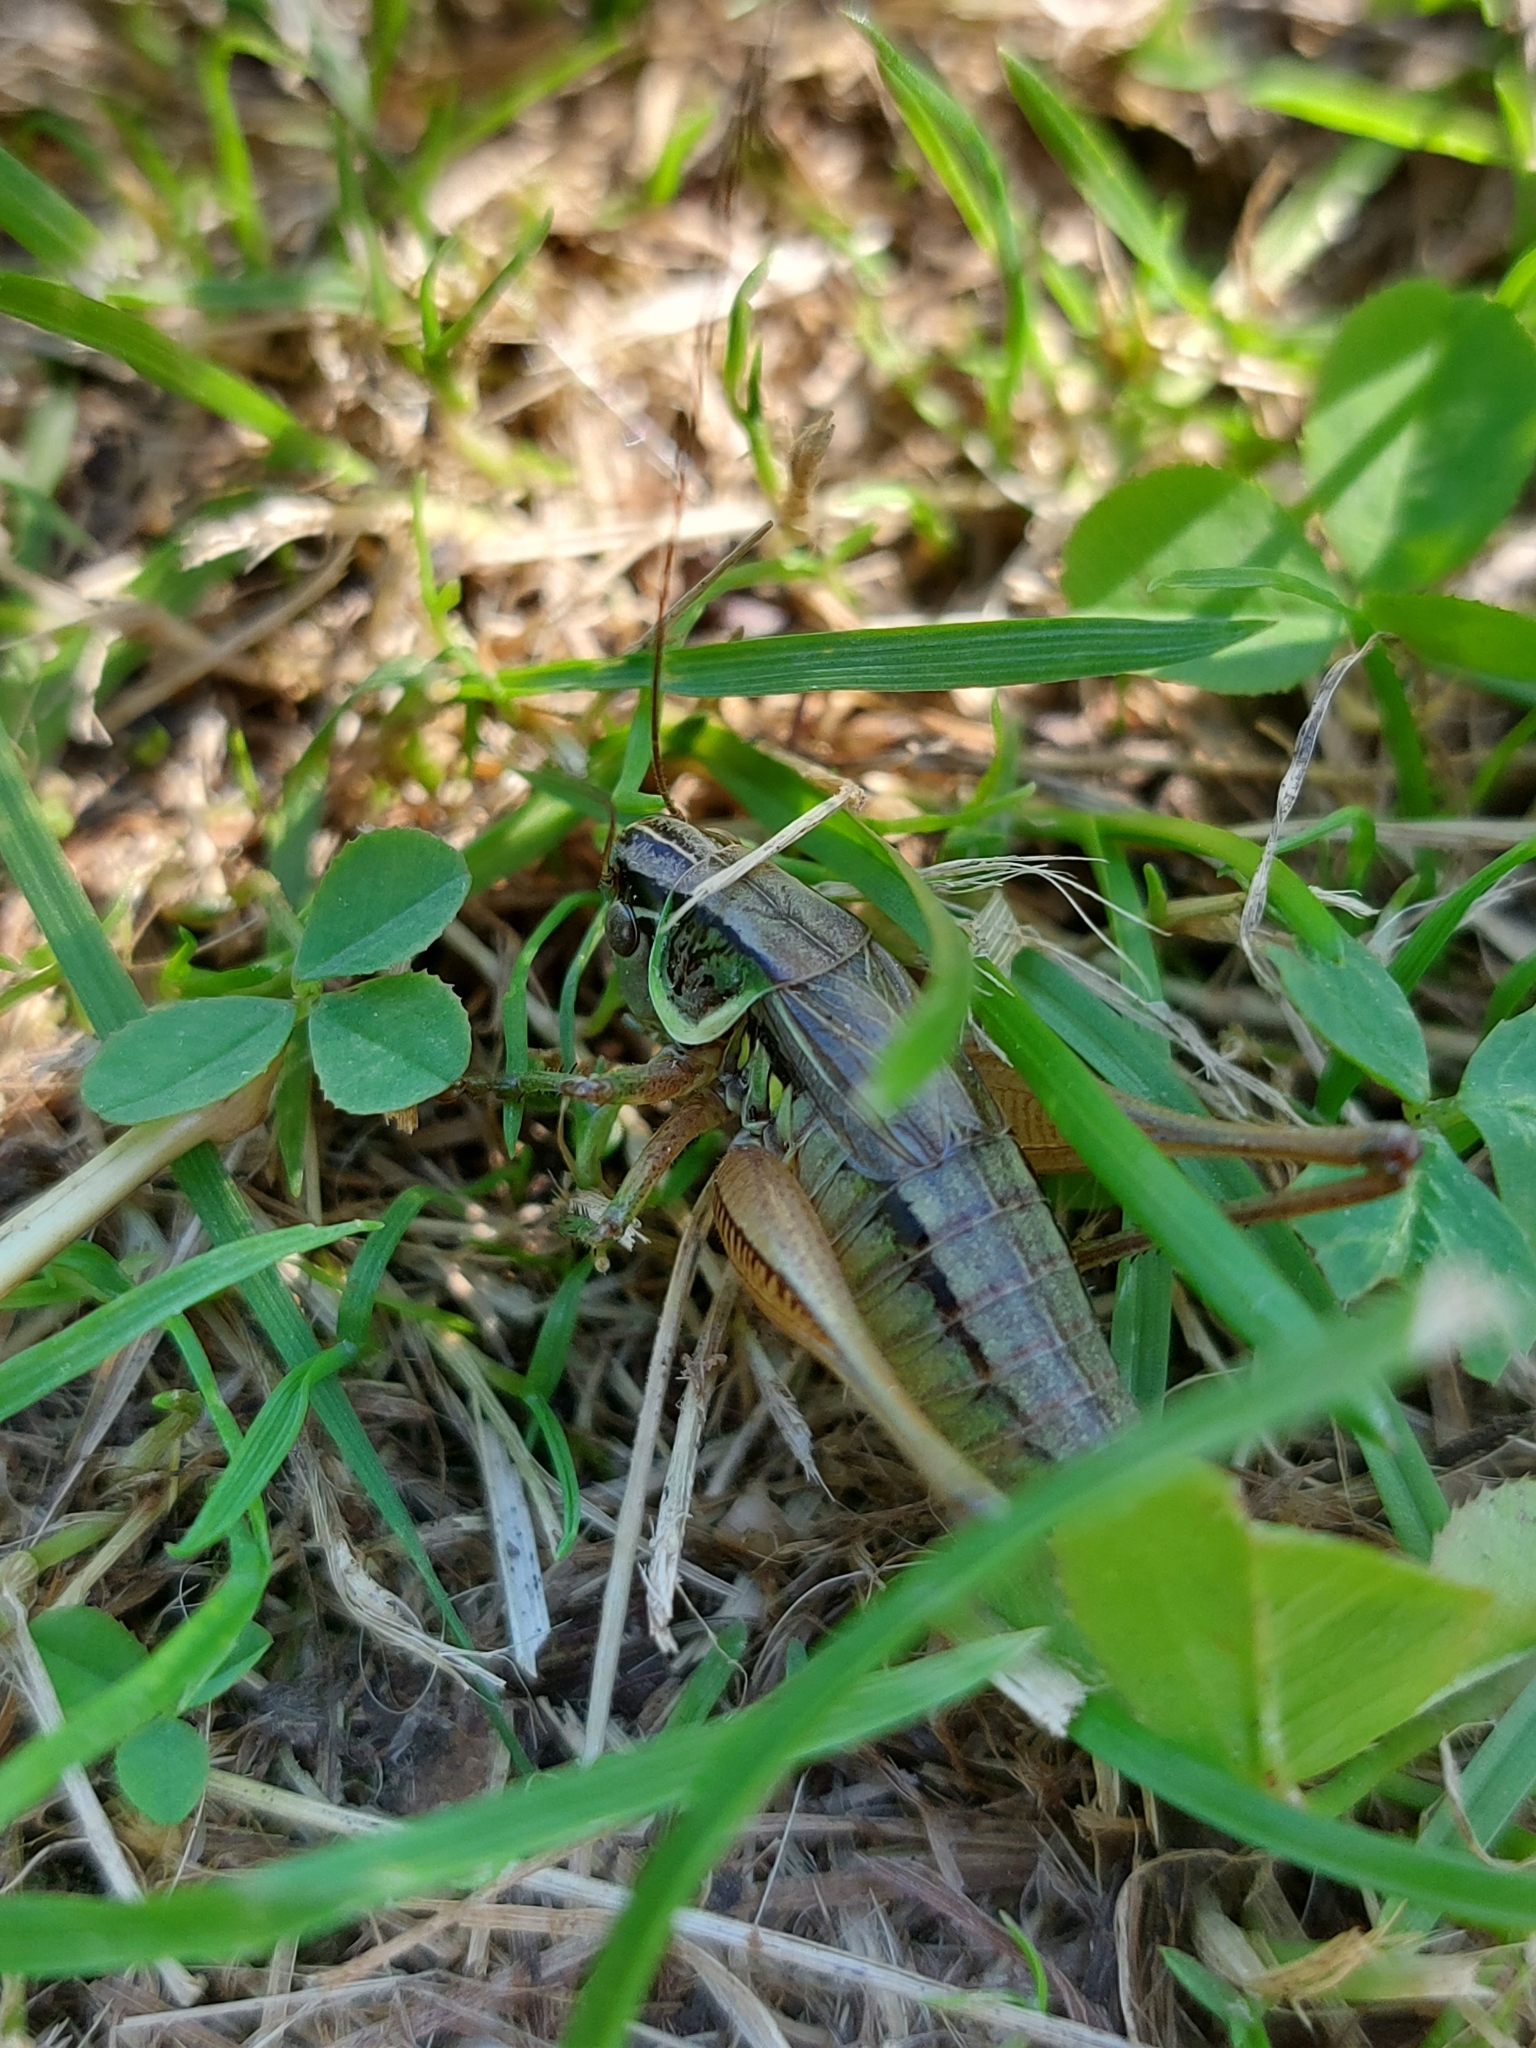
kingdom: Animalia
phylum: Arthropoda
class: Insecta
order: Orthoptera
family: Tettigoniidae
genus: Roeseliana
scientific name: Roeseliana roeselii
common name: Roesel's bush cricket
